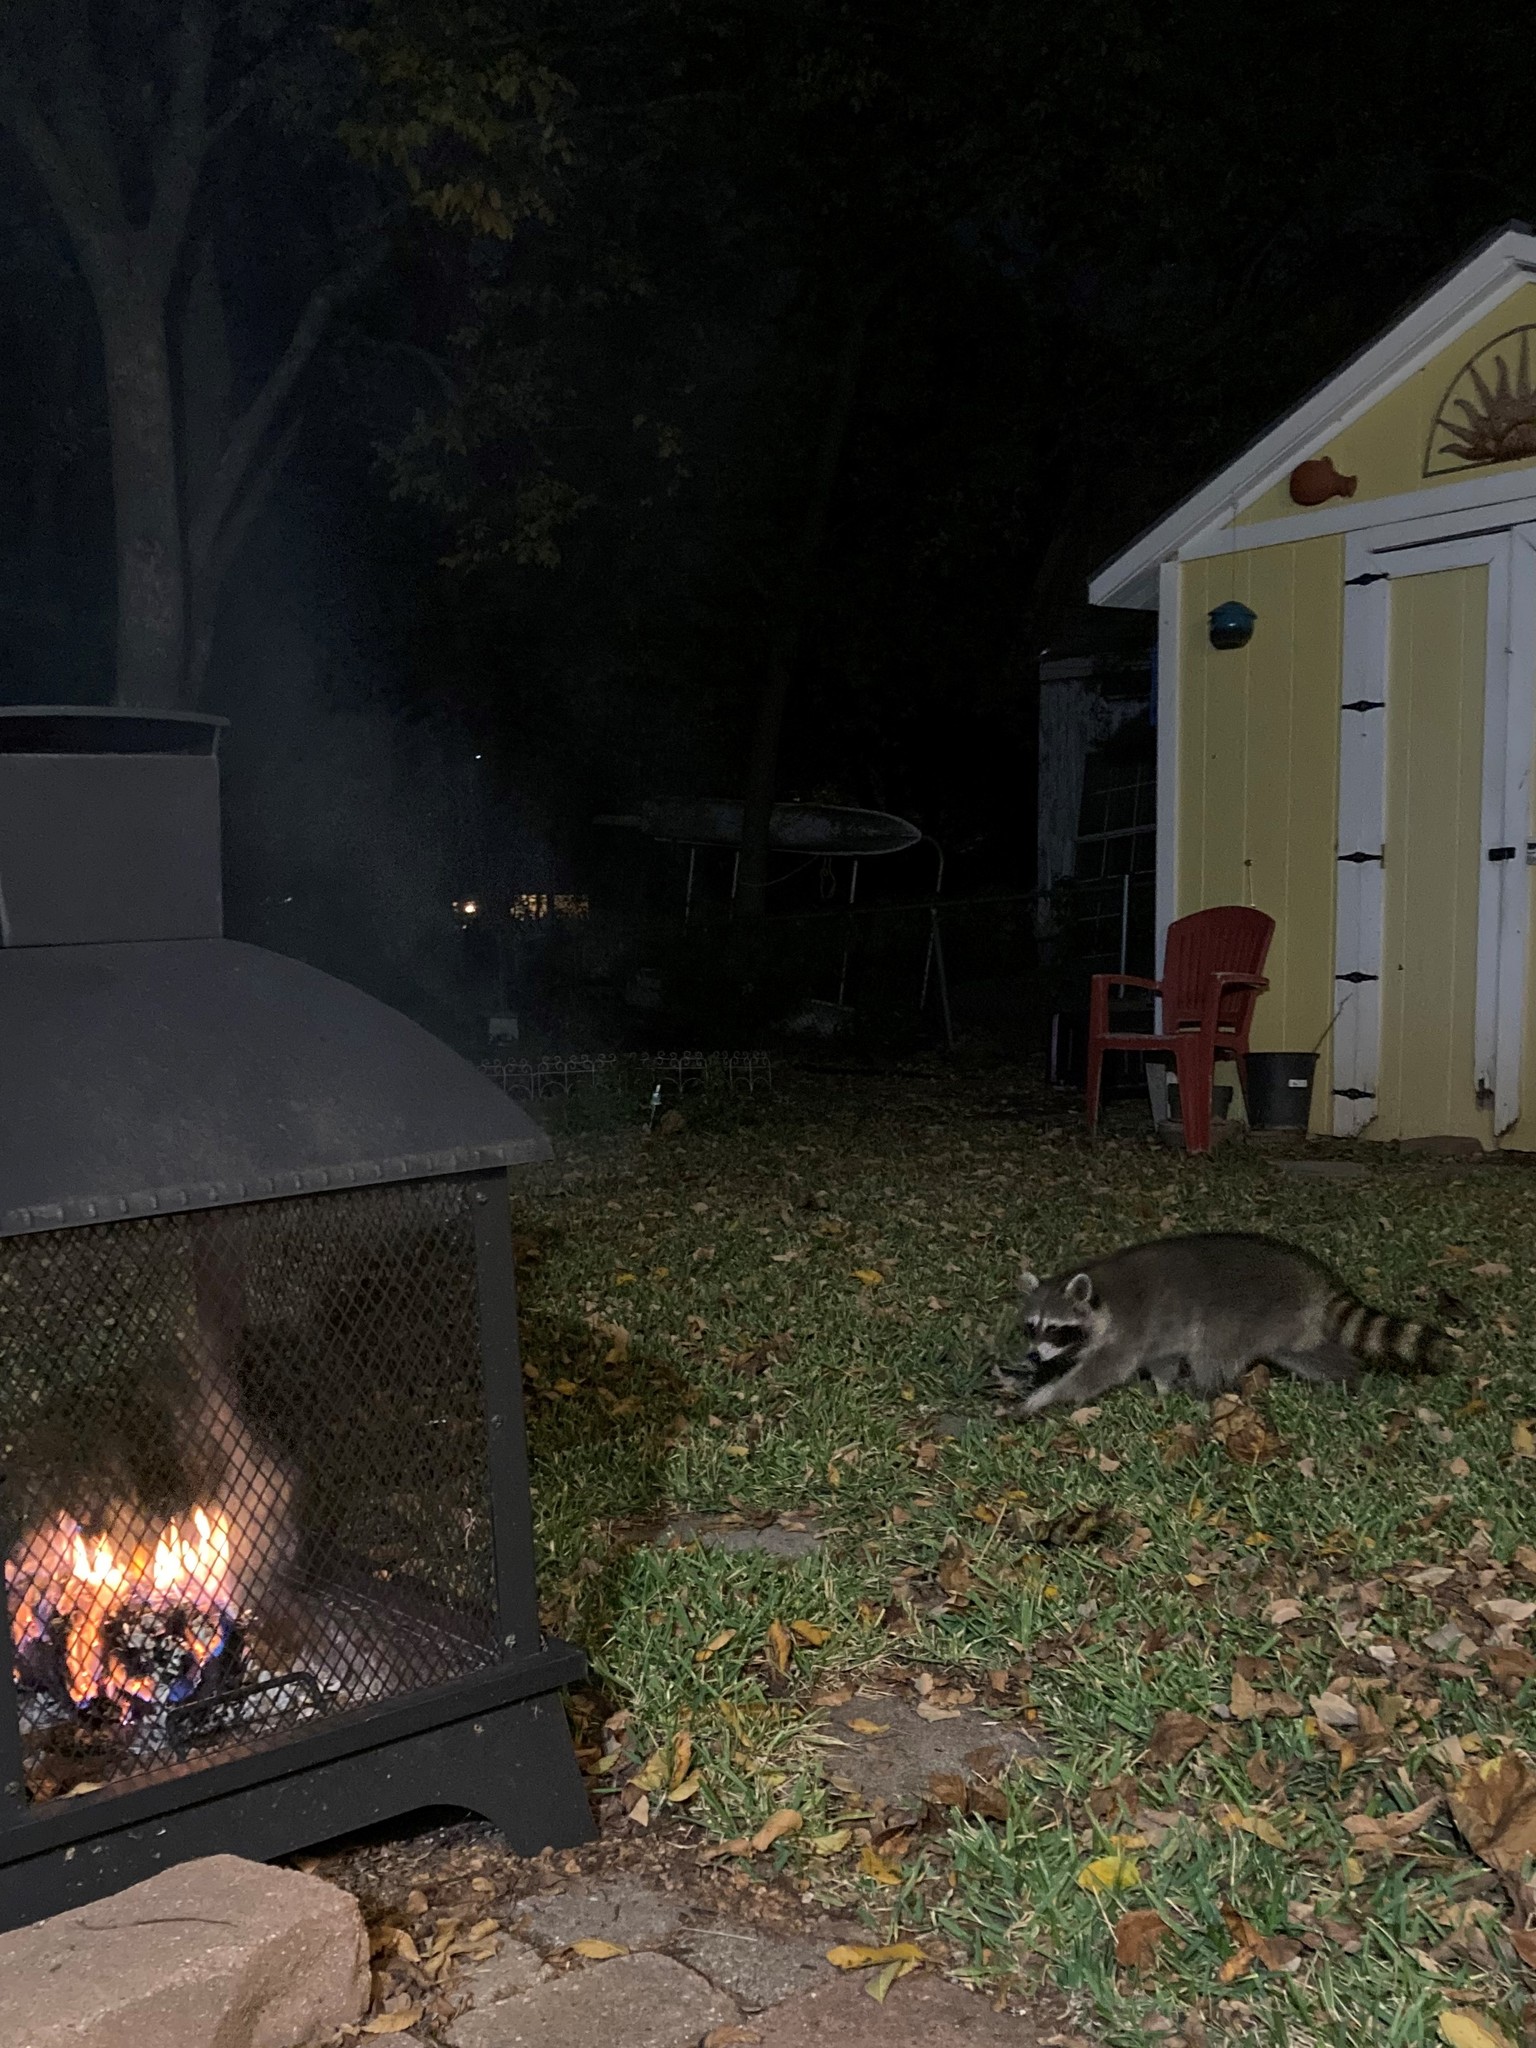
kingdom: Animalia
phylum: Chordata
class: Mammalia
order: Carnivora
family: Procyonidae
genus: Procyon
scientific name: Procyon lotor
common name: Raccoon
